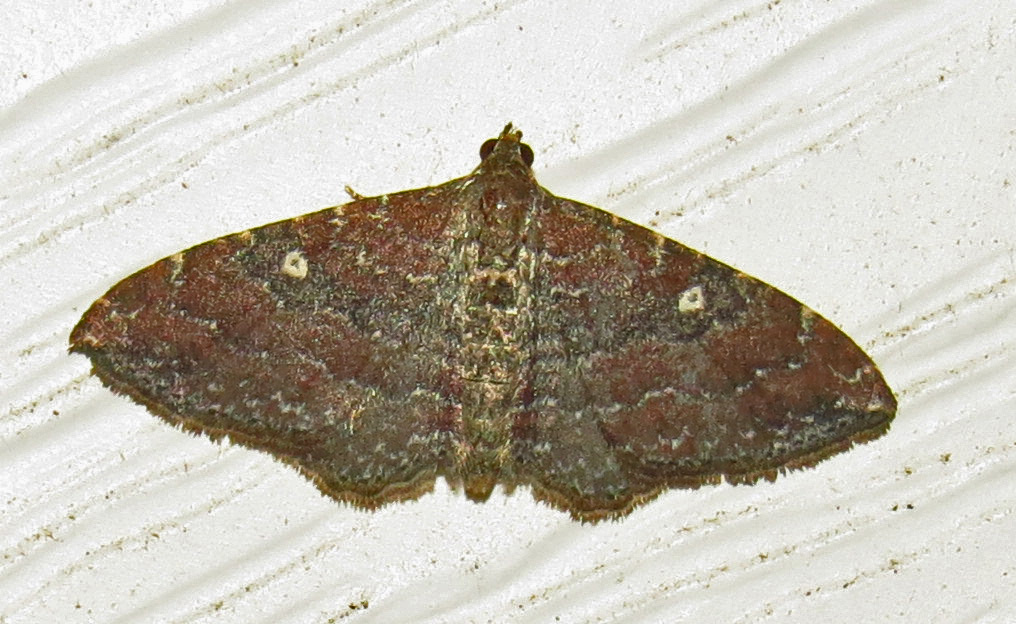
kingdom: Animalia
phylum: Arthropoda
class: Insecta
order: Lepidoptera
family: Geometridae
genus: Orthonama
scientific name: Orthonama obstipata
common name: The gem
